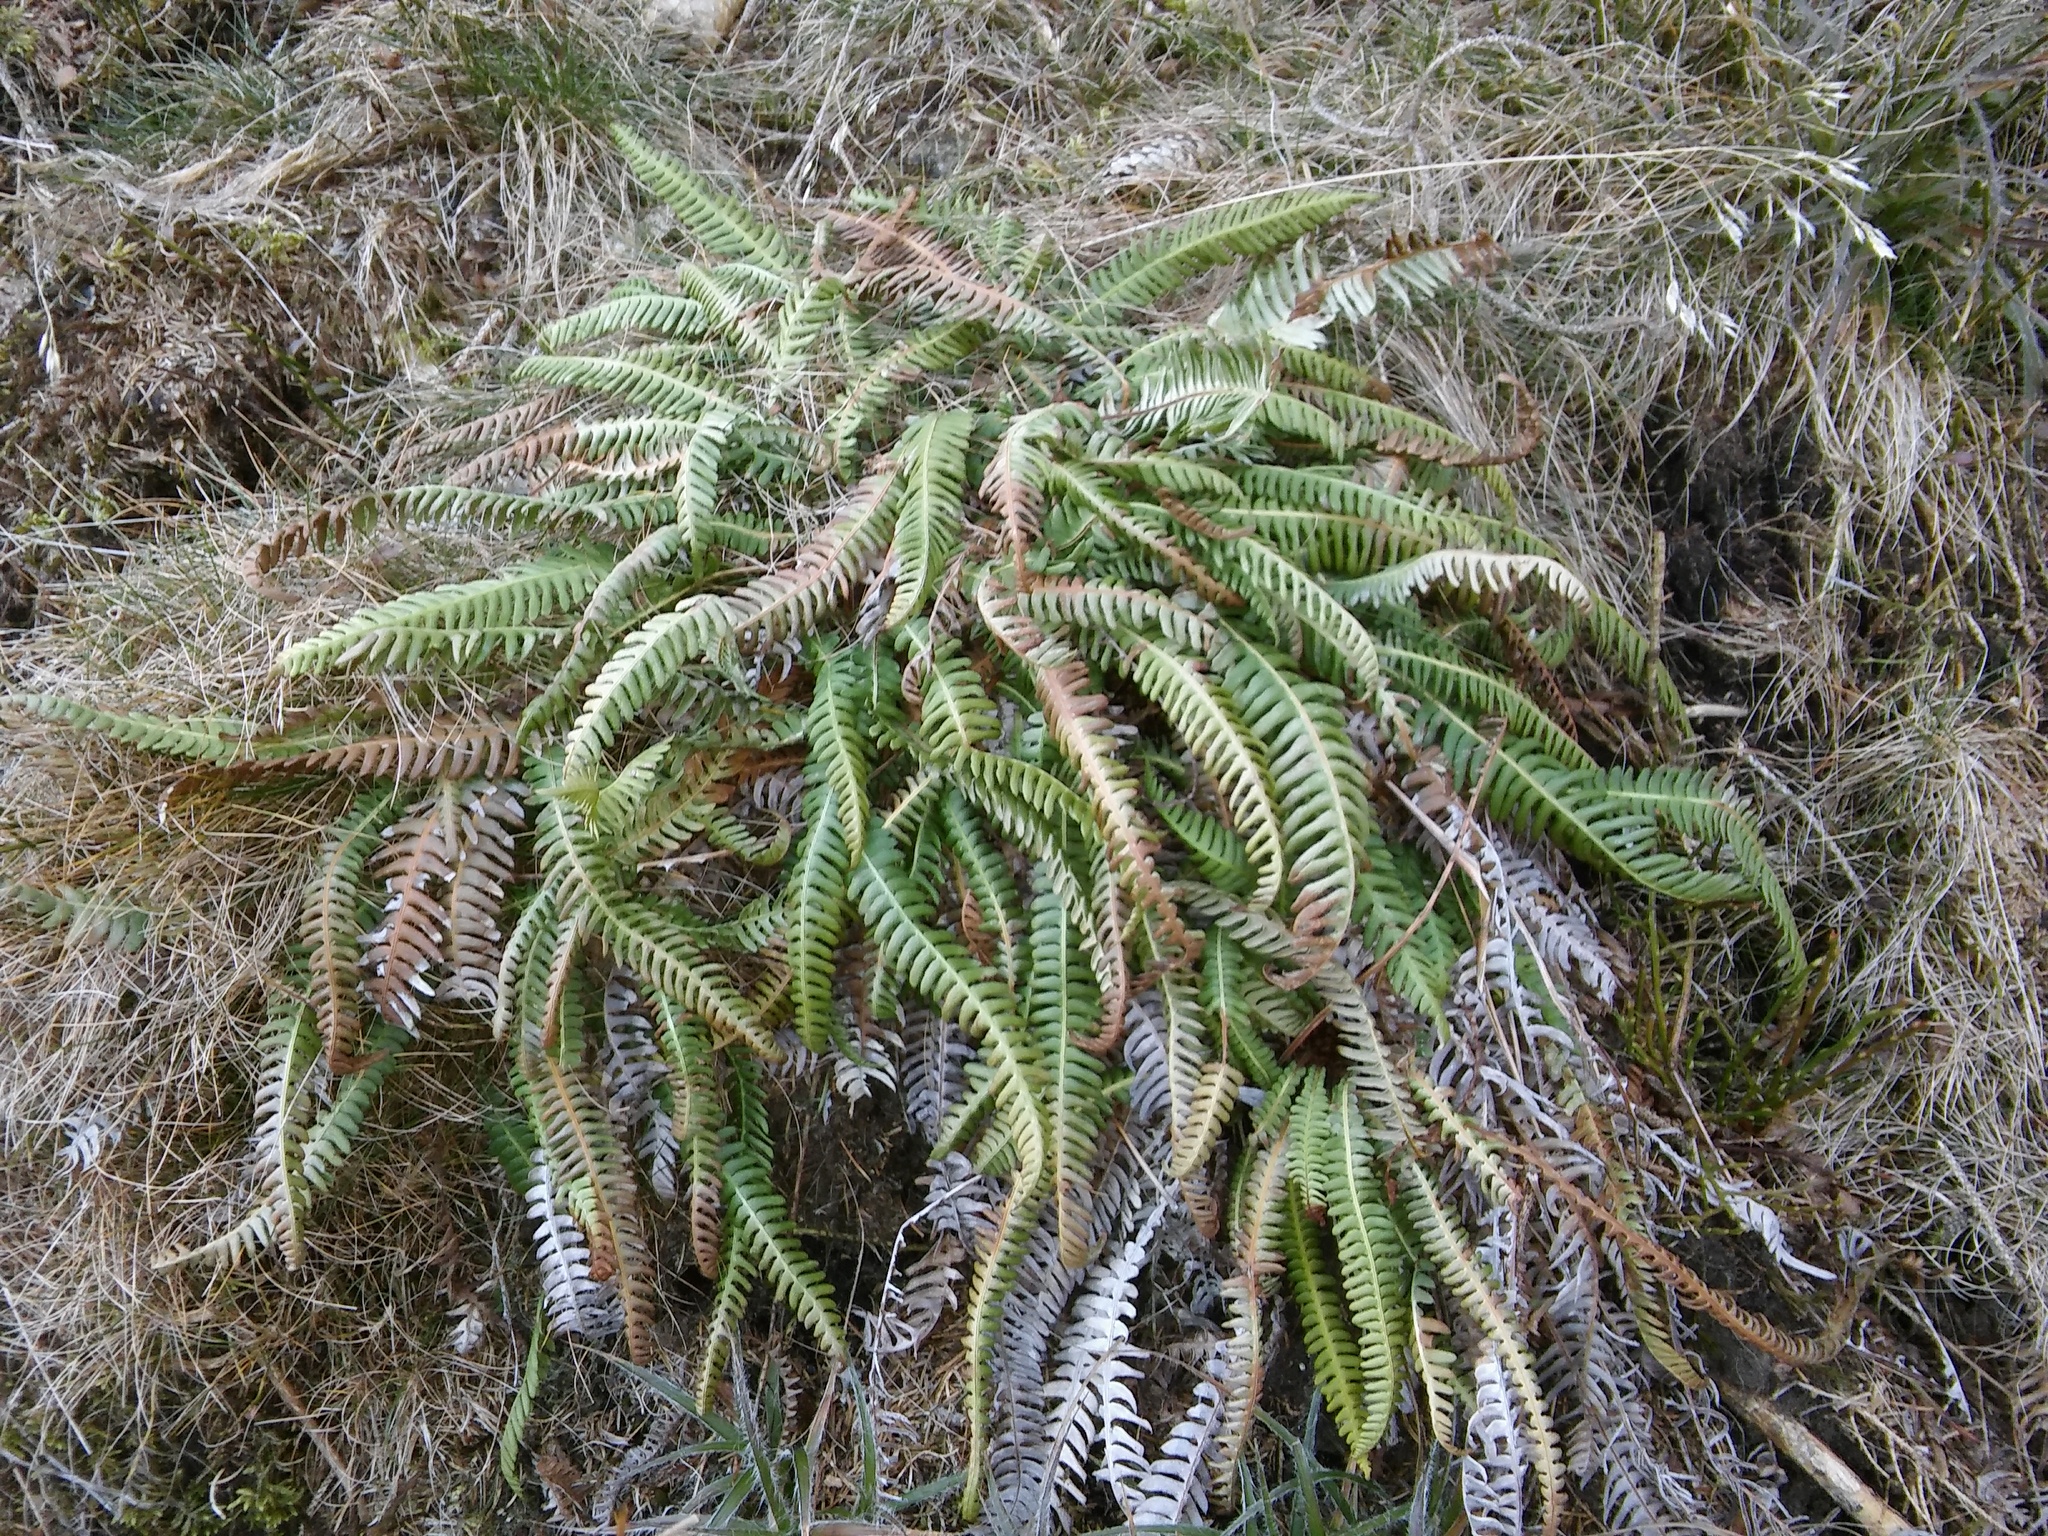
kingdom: Plantae
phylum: Tracheophyta
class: Polypodiopsida
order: Polypodiales
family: Blechnaceae
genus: Struthiopteris
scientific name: Struthiopteris spicant
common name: Deer fern
